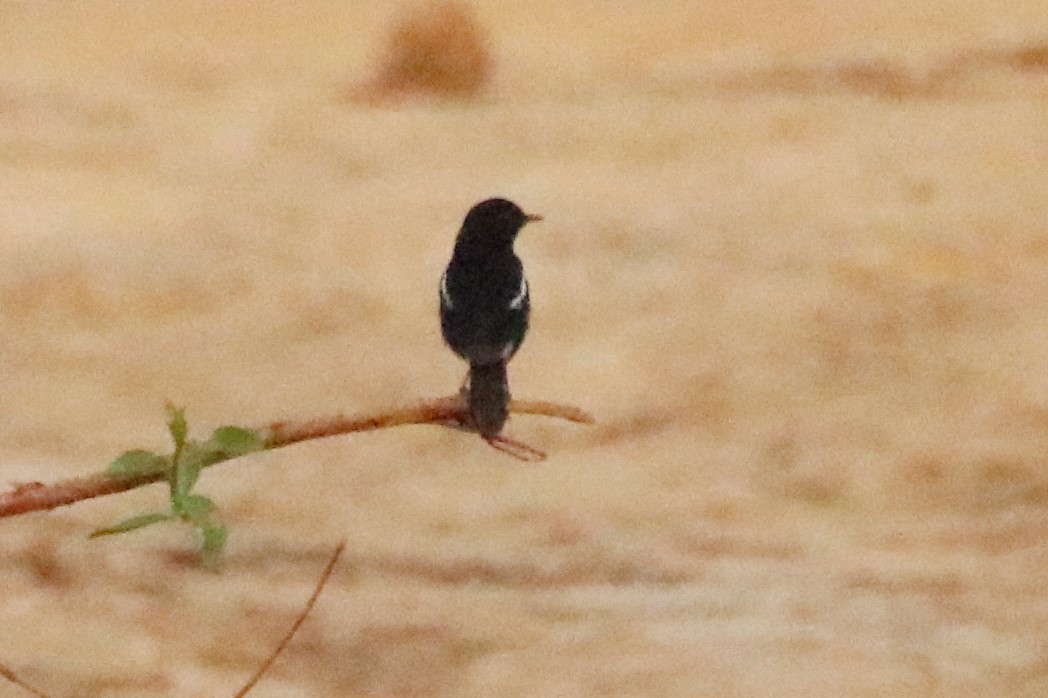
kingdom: Animalia
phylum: Chordata
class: Aves
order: Passeriformes
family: Muscicapidae
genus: Saxicola
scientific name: Saxicola caprata
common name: Pied bush chat
